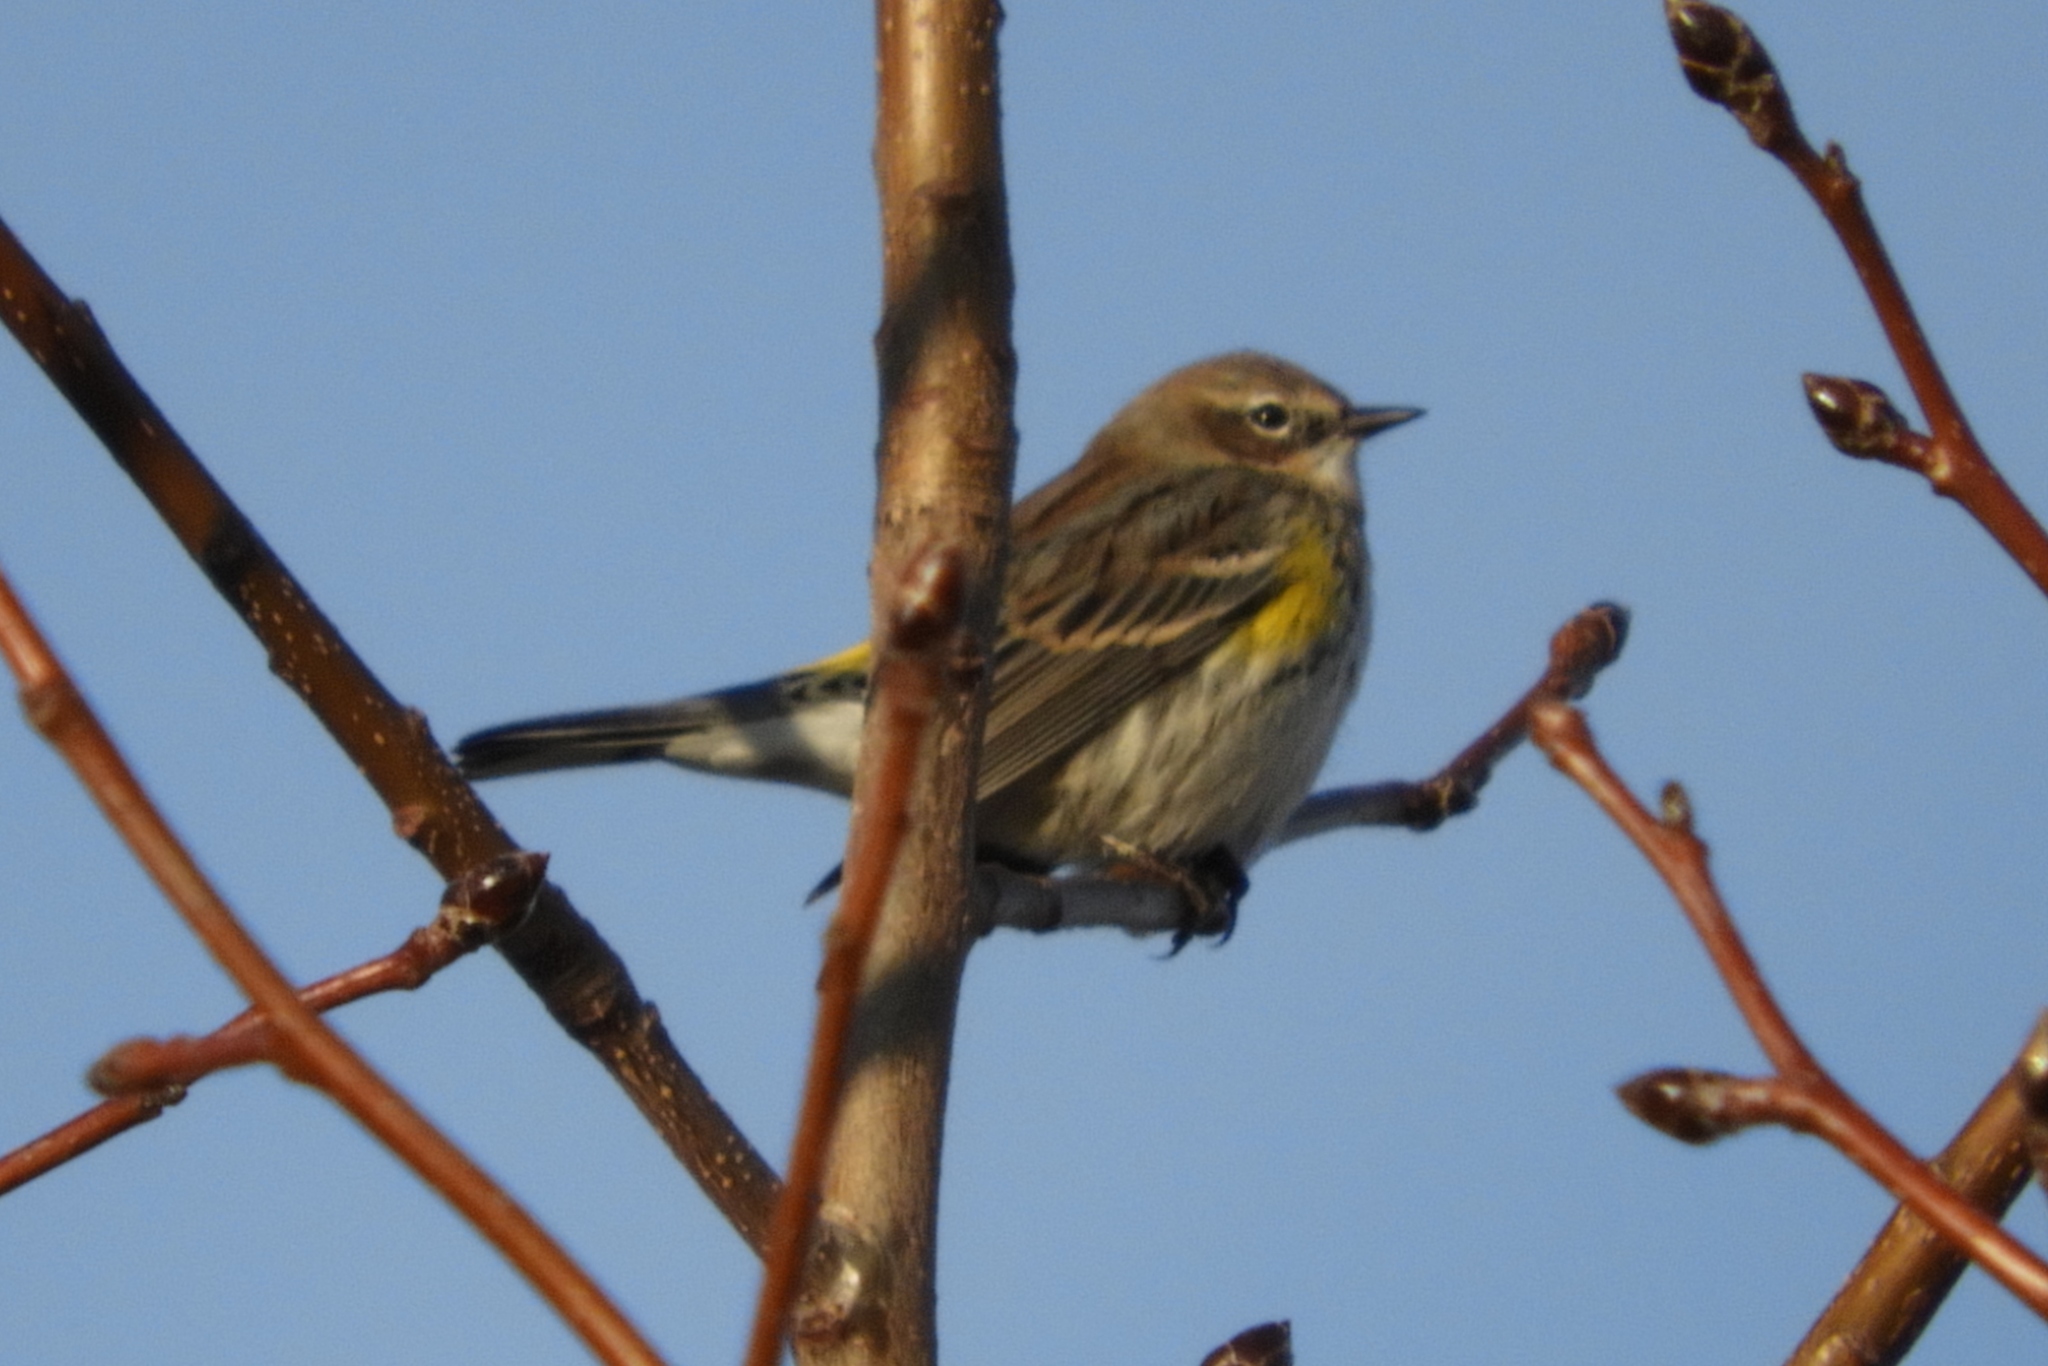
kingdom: Animalia
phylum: Chordata
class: Aves
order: Passeriformes
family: Parulidae
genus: Setophaga
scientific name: Setophaga coronata
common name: Myrtle warbler
